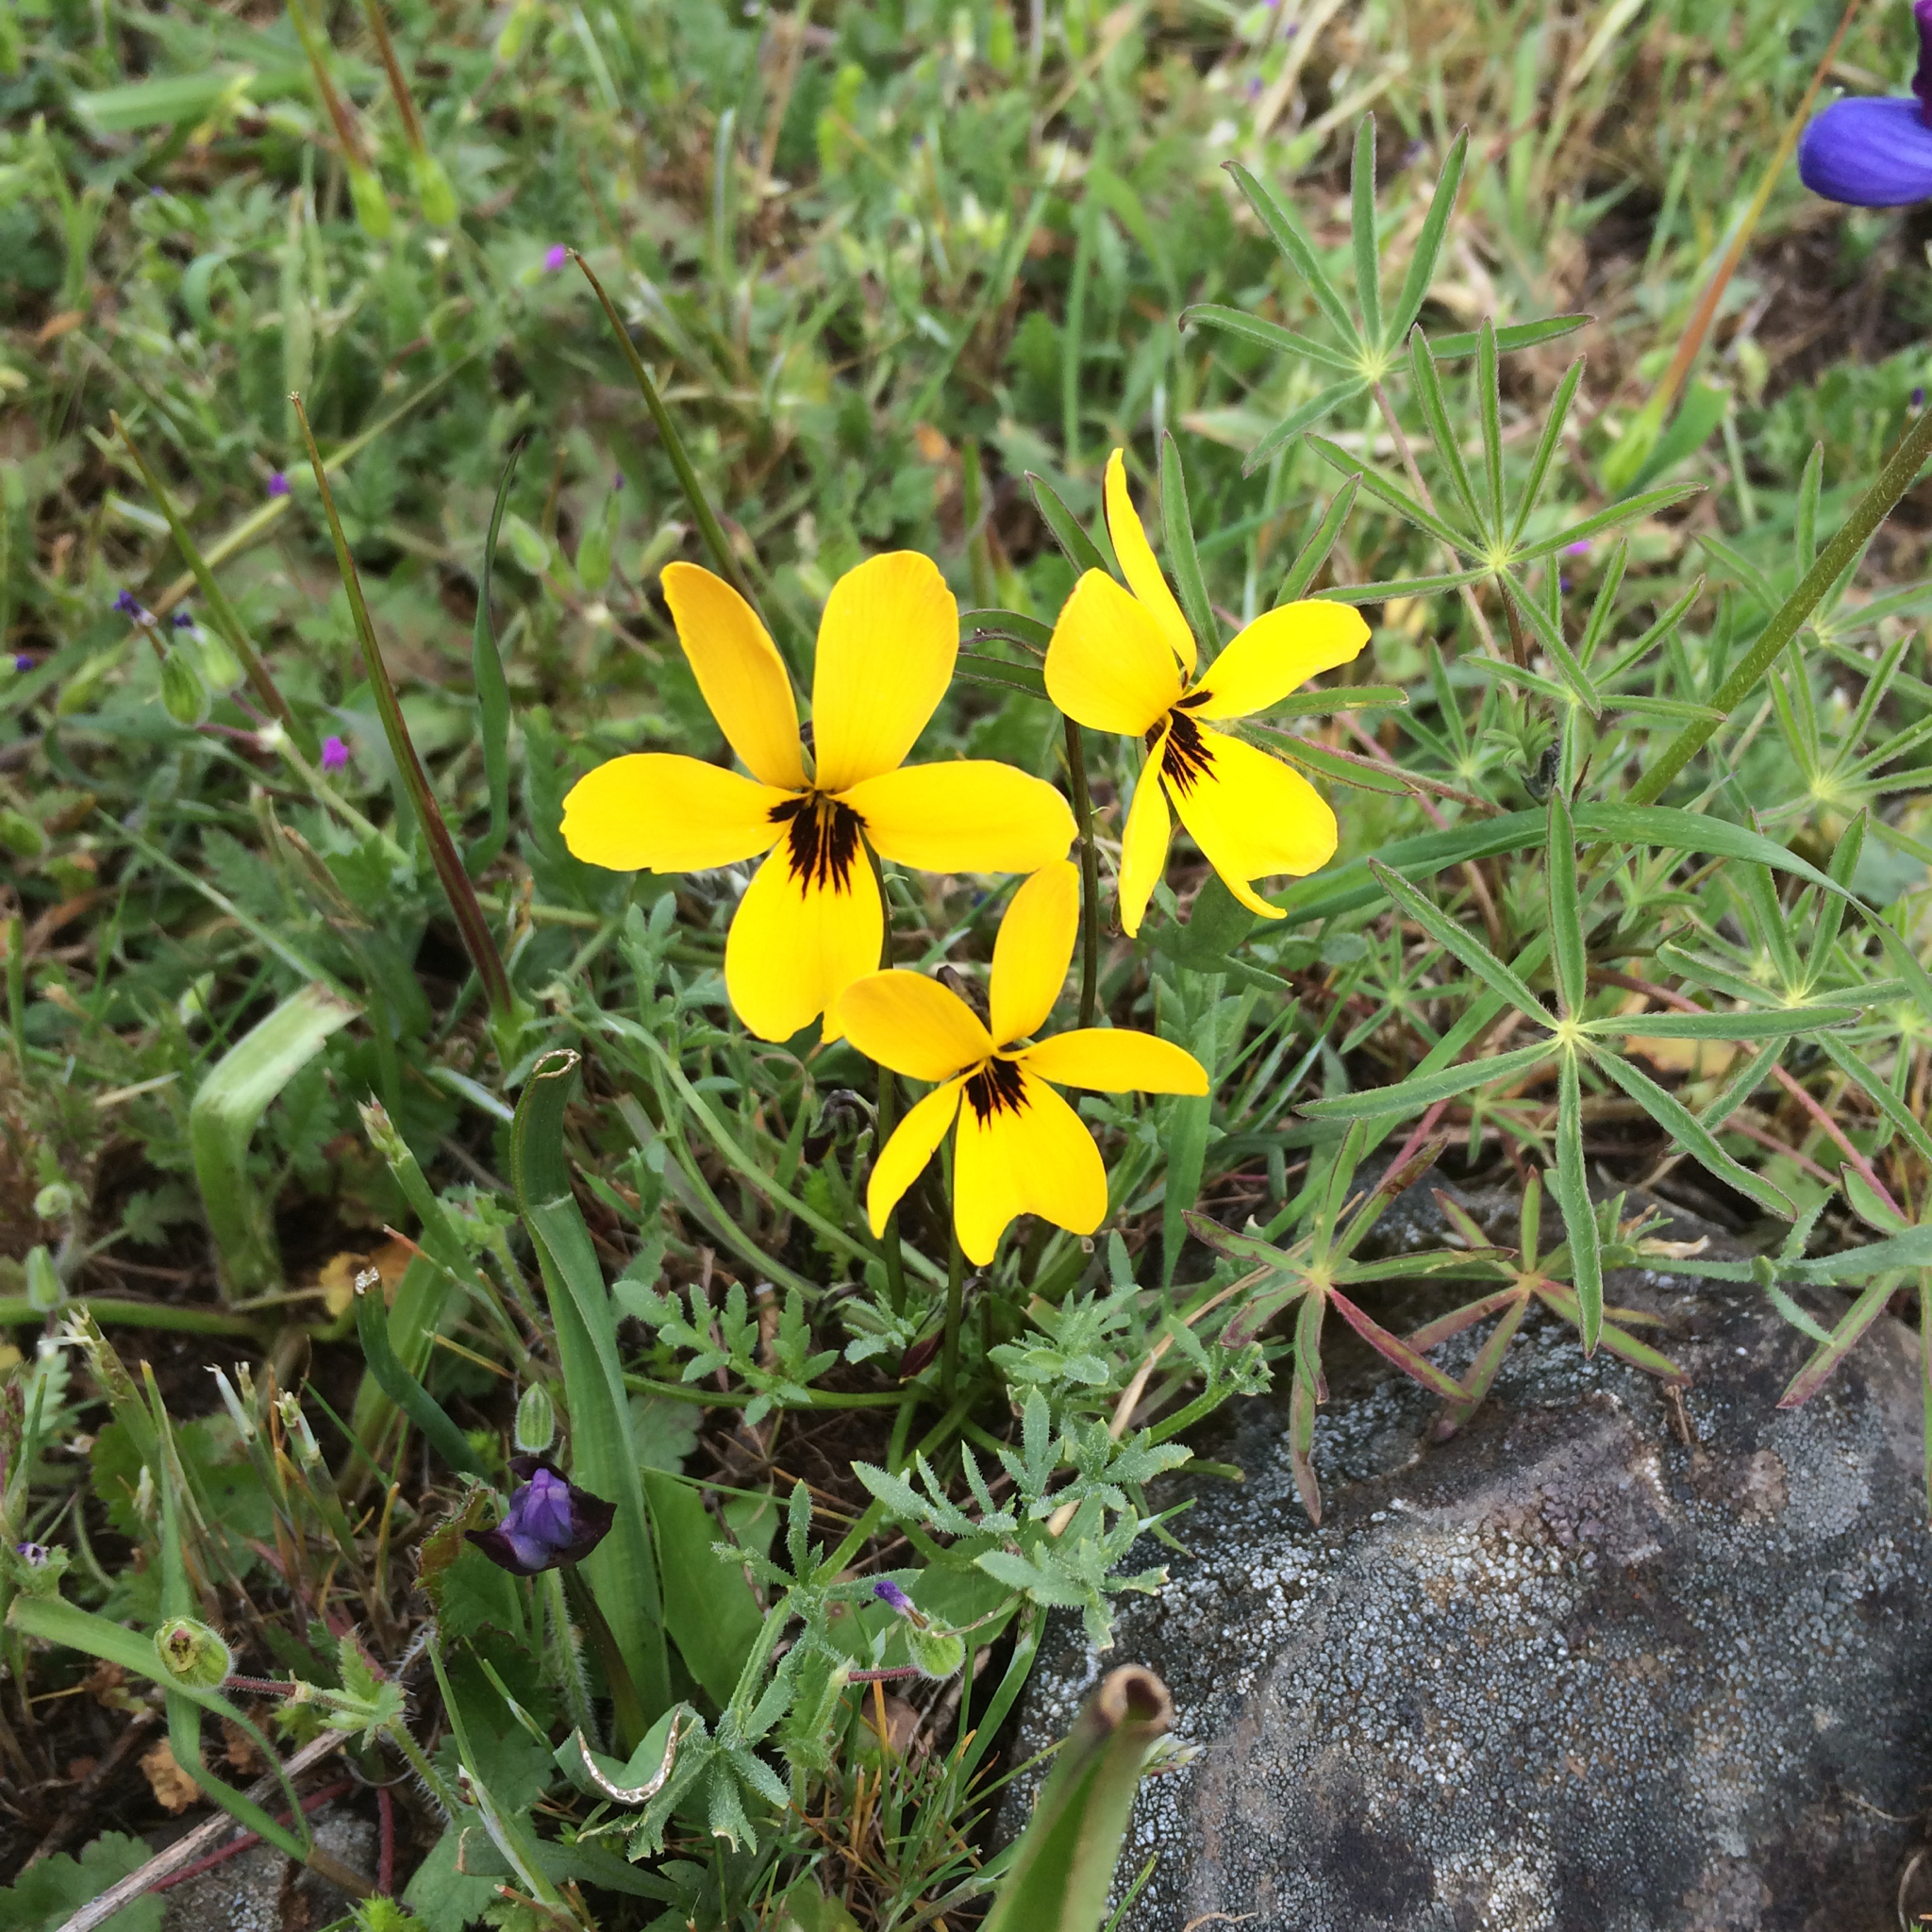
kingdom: Plantae
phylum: Tracheophyta
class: Magnoliopsida
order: Malpighiales
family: Violaceae
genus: Viola
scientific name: Viola douglasii
